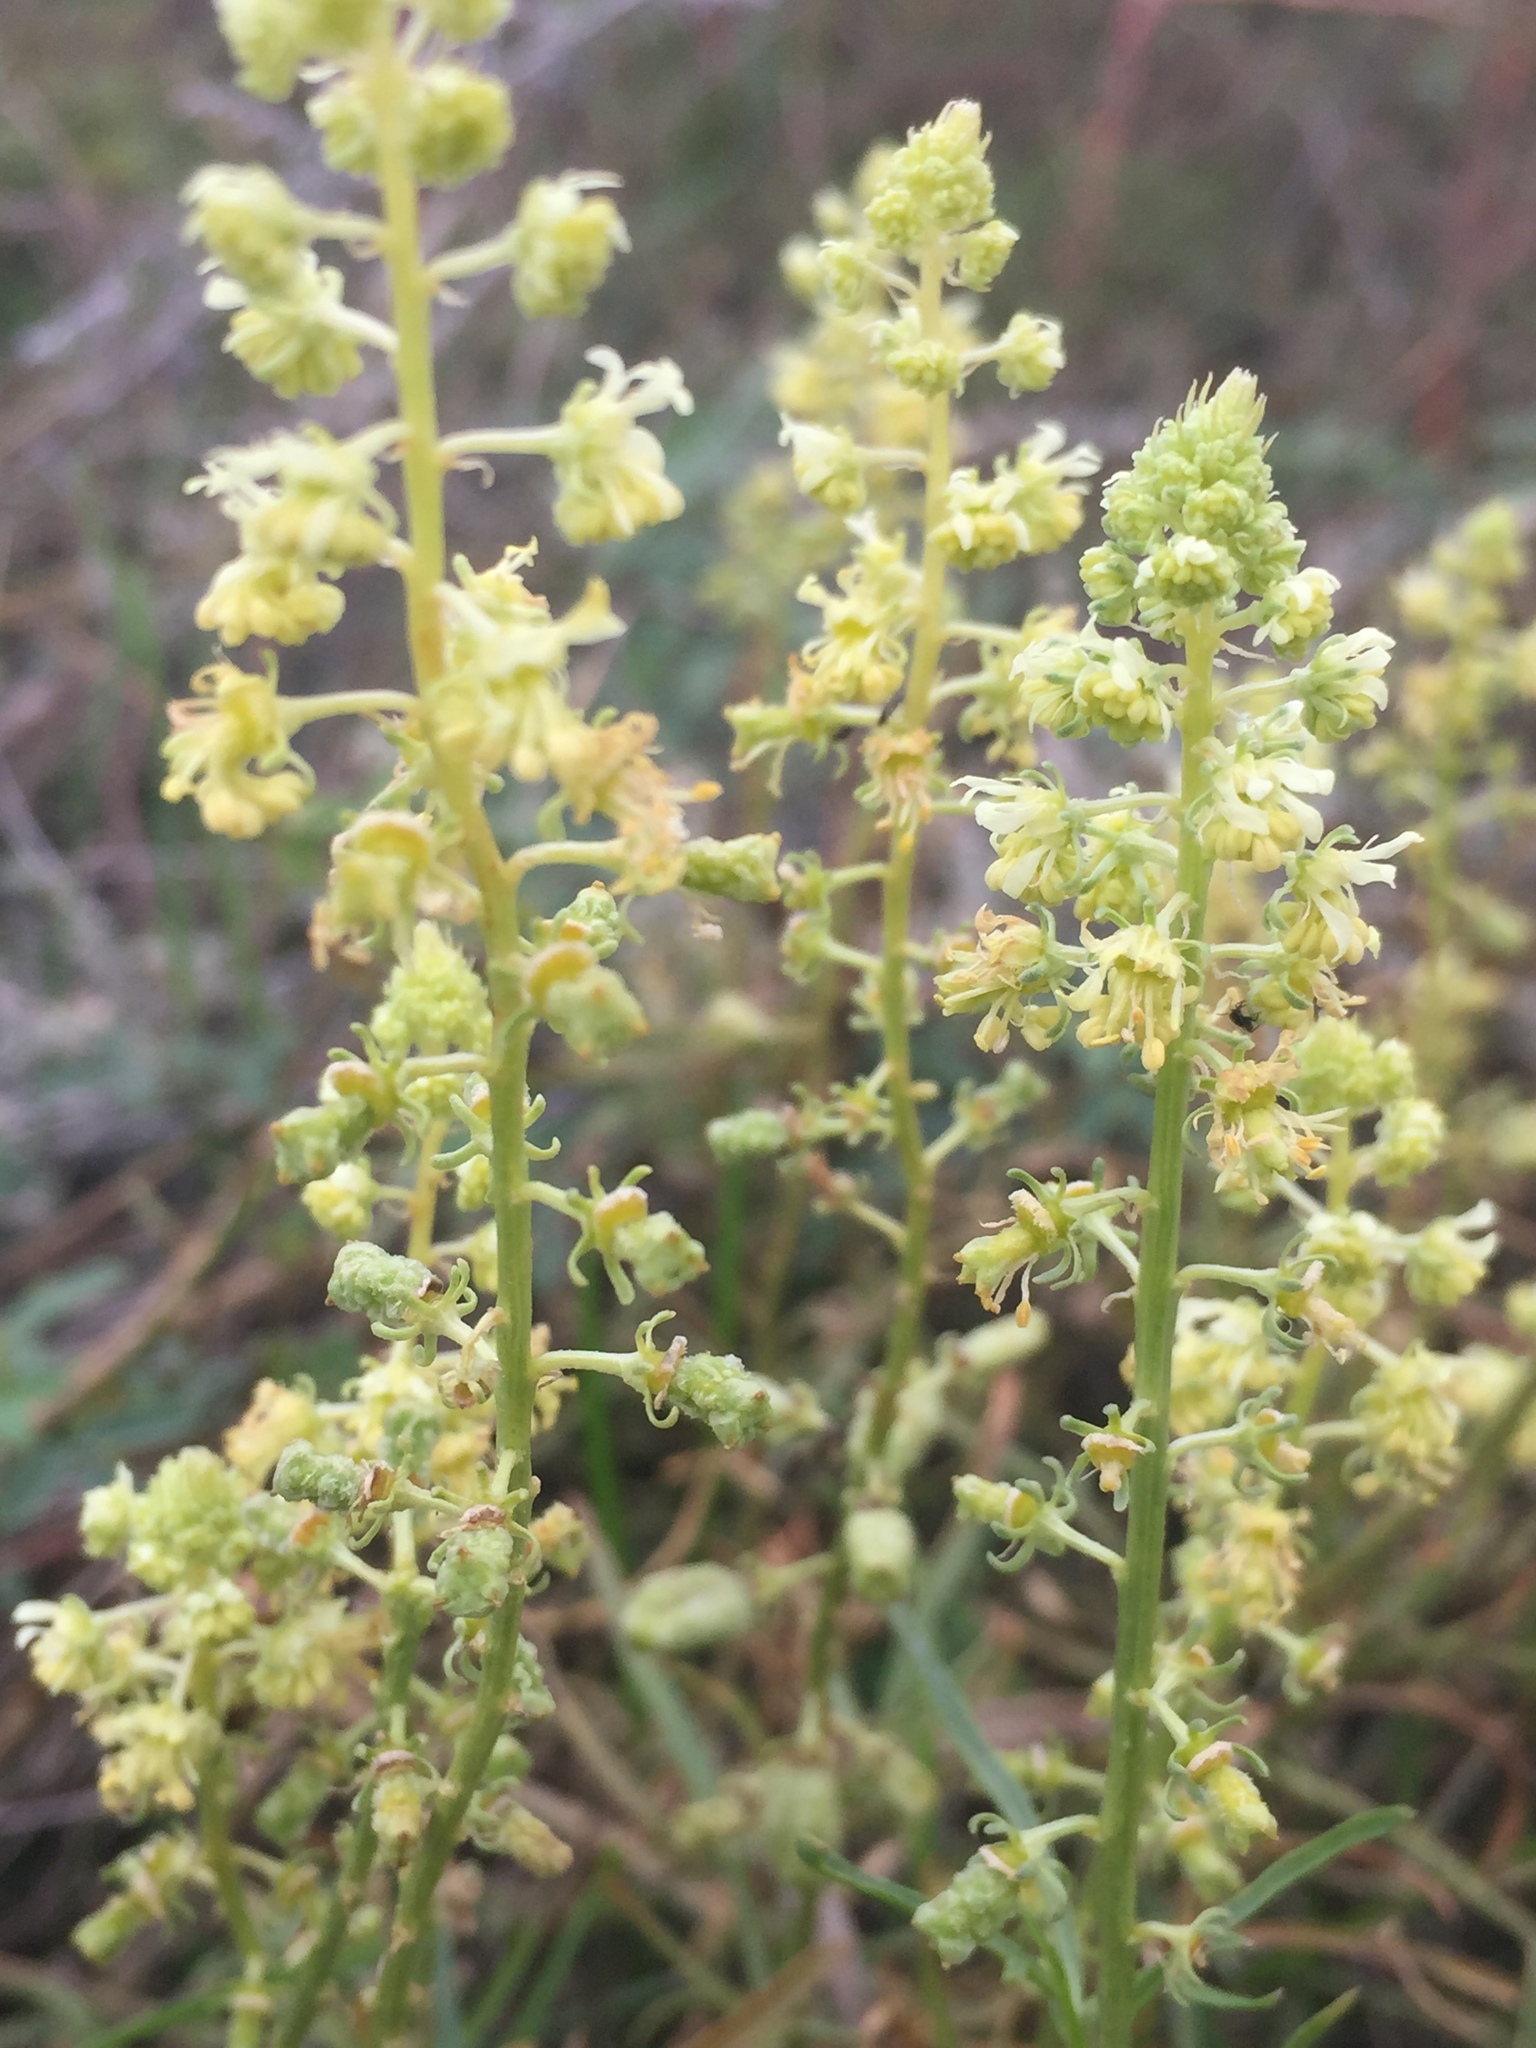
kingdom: Plantae
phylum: Tracheophyta
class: Magnoliopsida
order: Brassicales
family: Resedaceae
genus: Reseda
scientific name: Reseda lutea
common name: Wild mignonette
